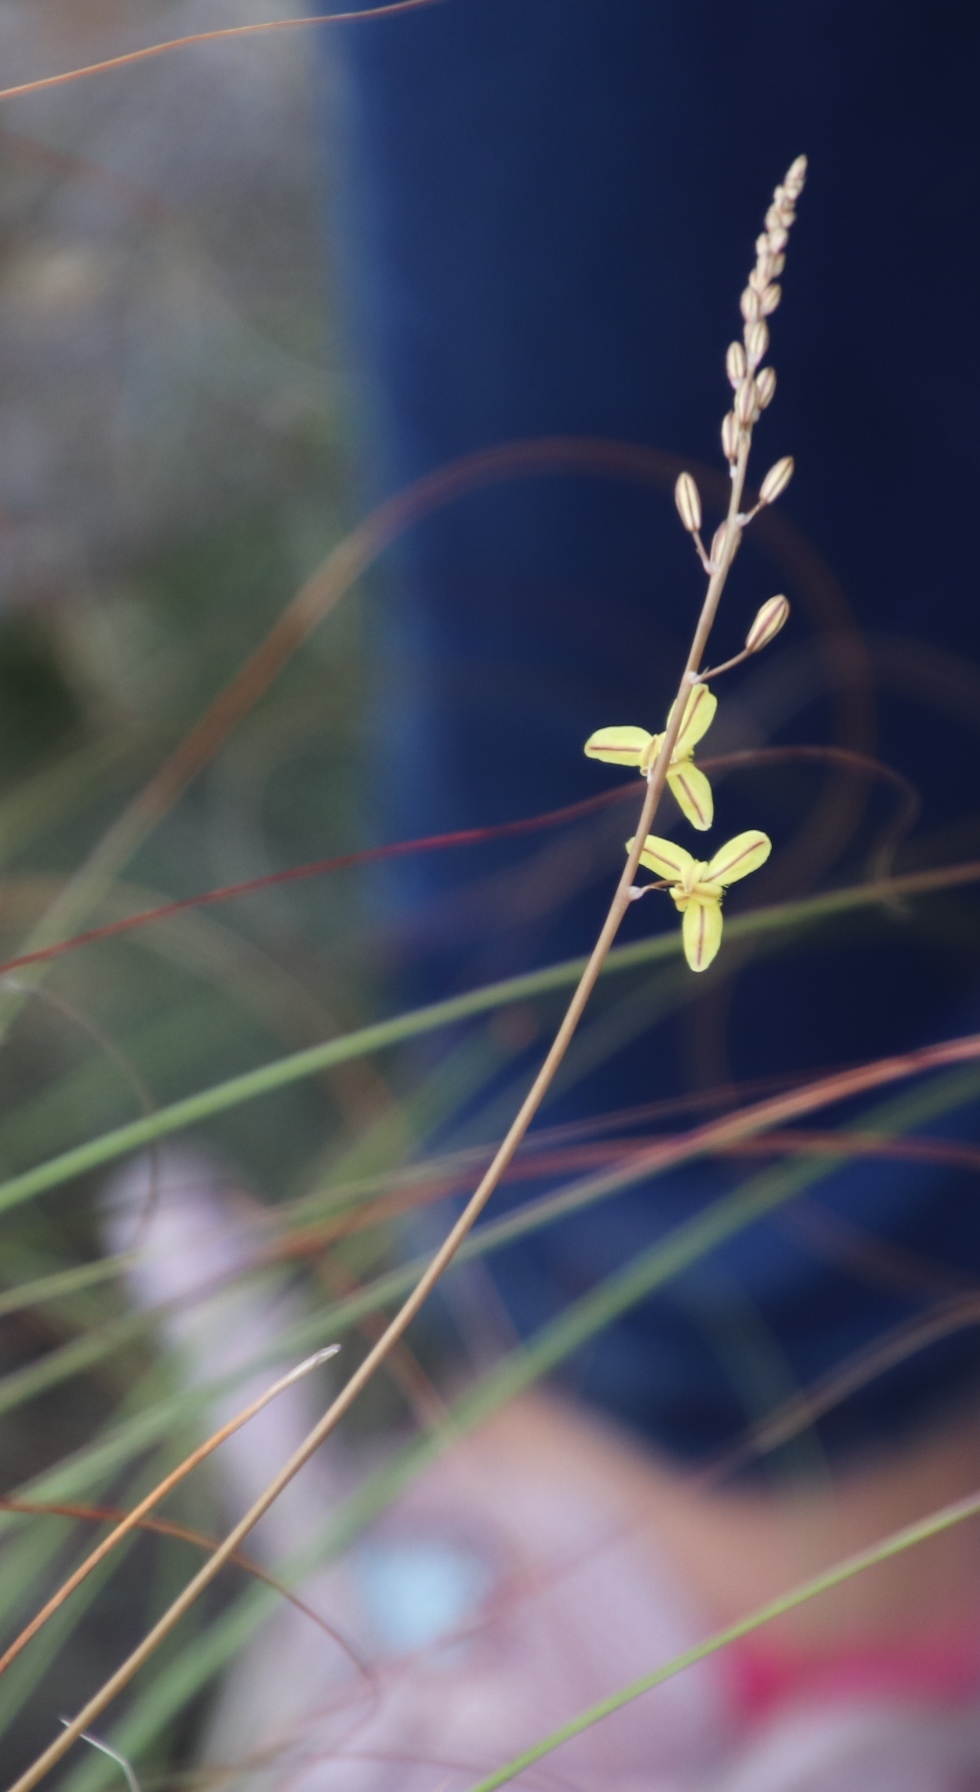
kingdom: Plantae
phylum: Tracheophyta
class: Liliopsida
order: Asparagales
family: Asphodelaceae
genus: Bulbine
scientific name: Bulbine favosa
